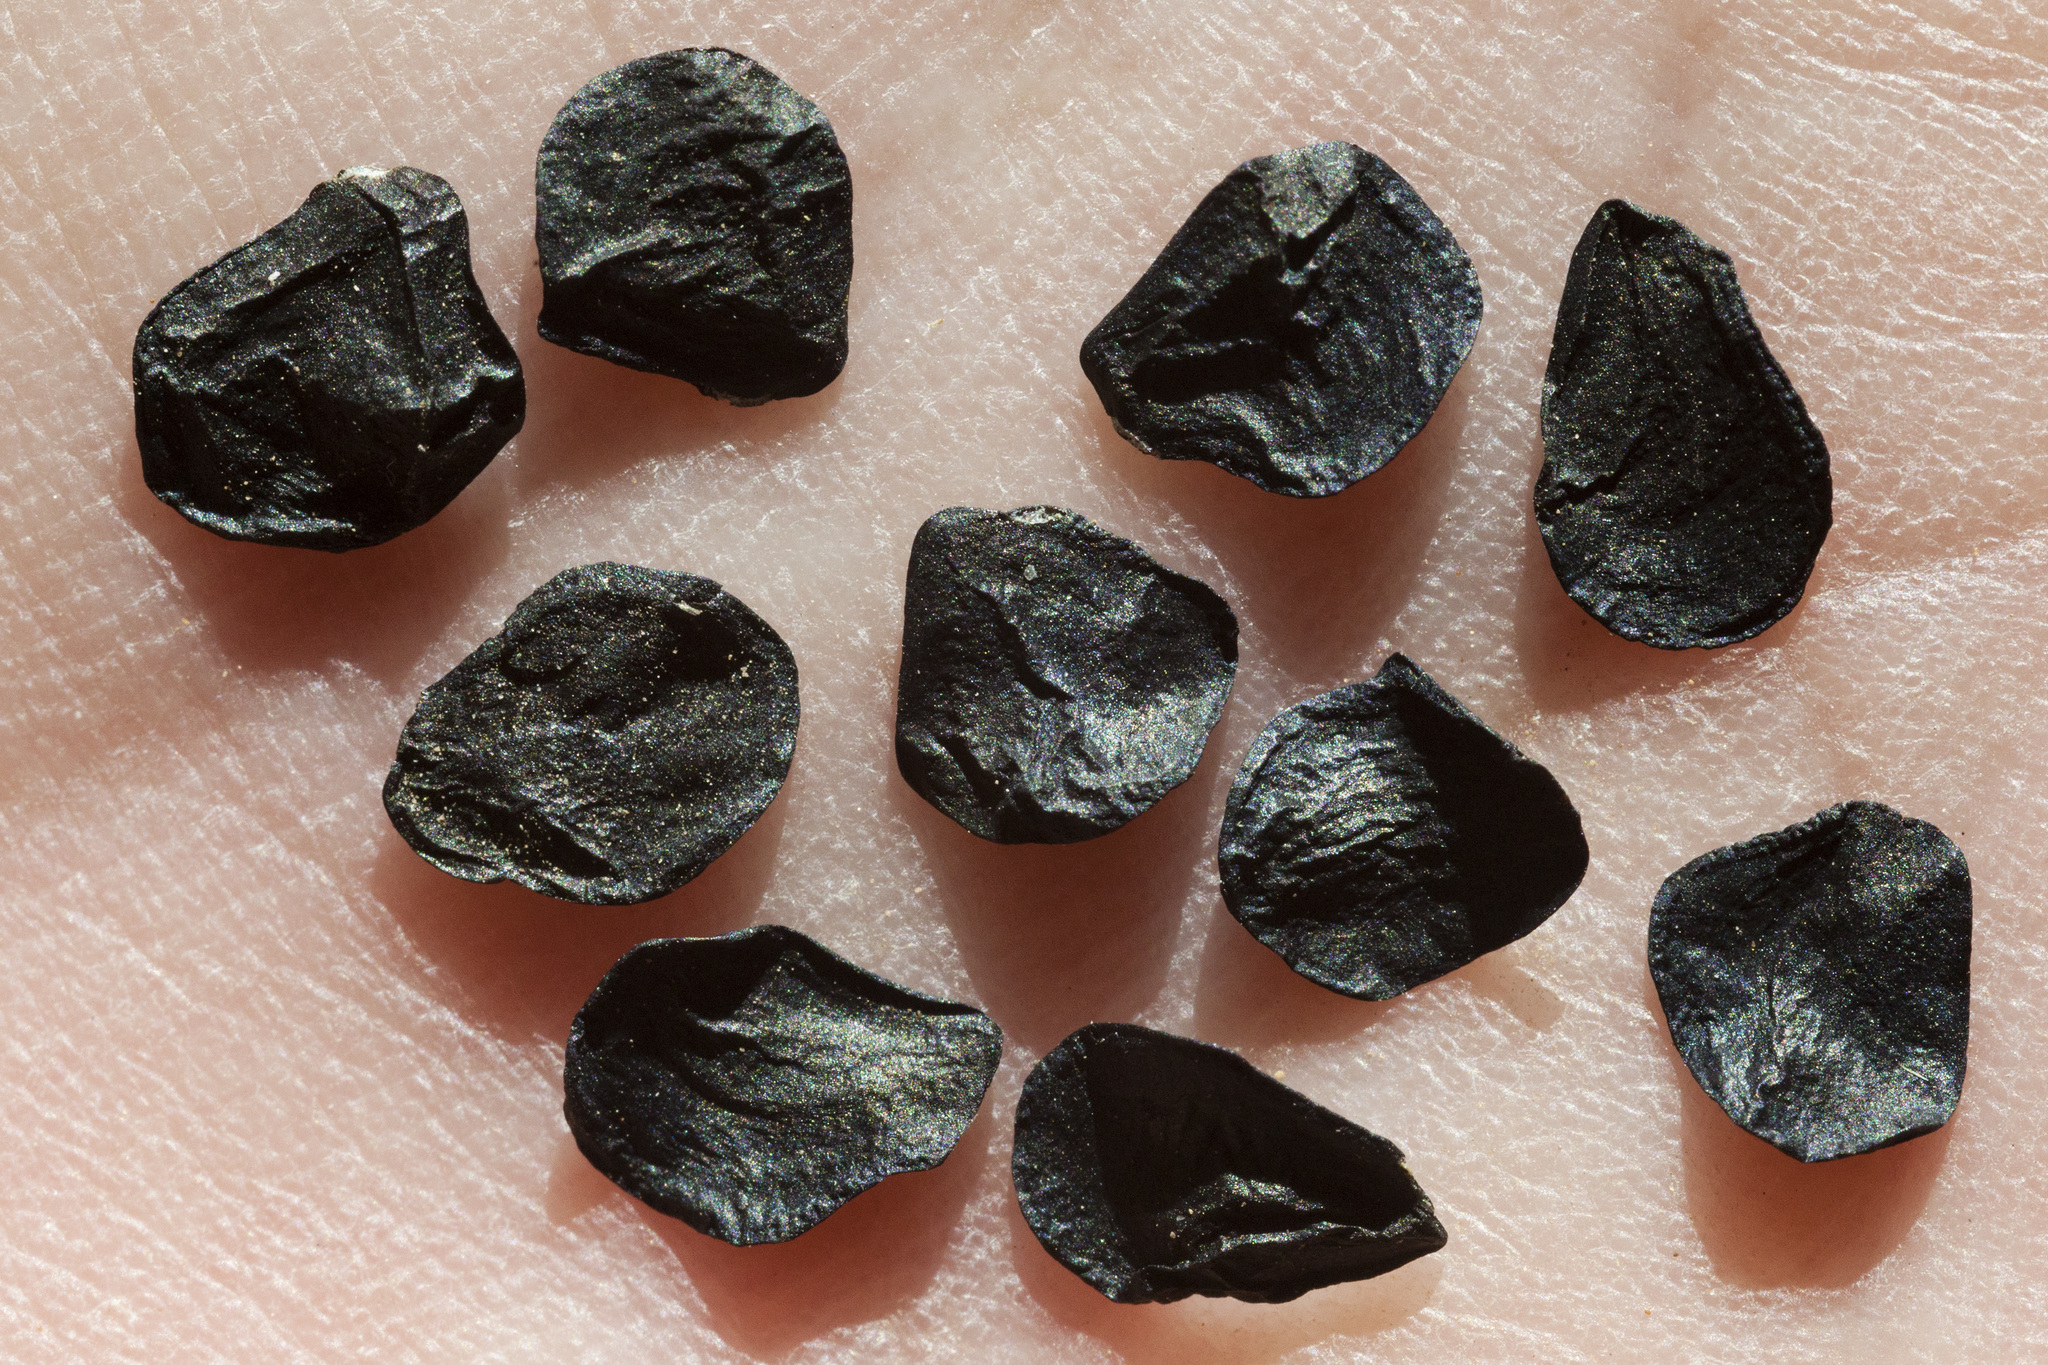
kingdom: Plantae
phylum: Tracheophyta
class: Liliopsida
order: Asparagales
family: Asparagaceae
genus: Muilla
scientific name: Muilla lordsburgana
